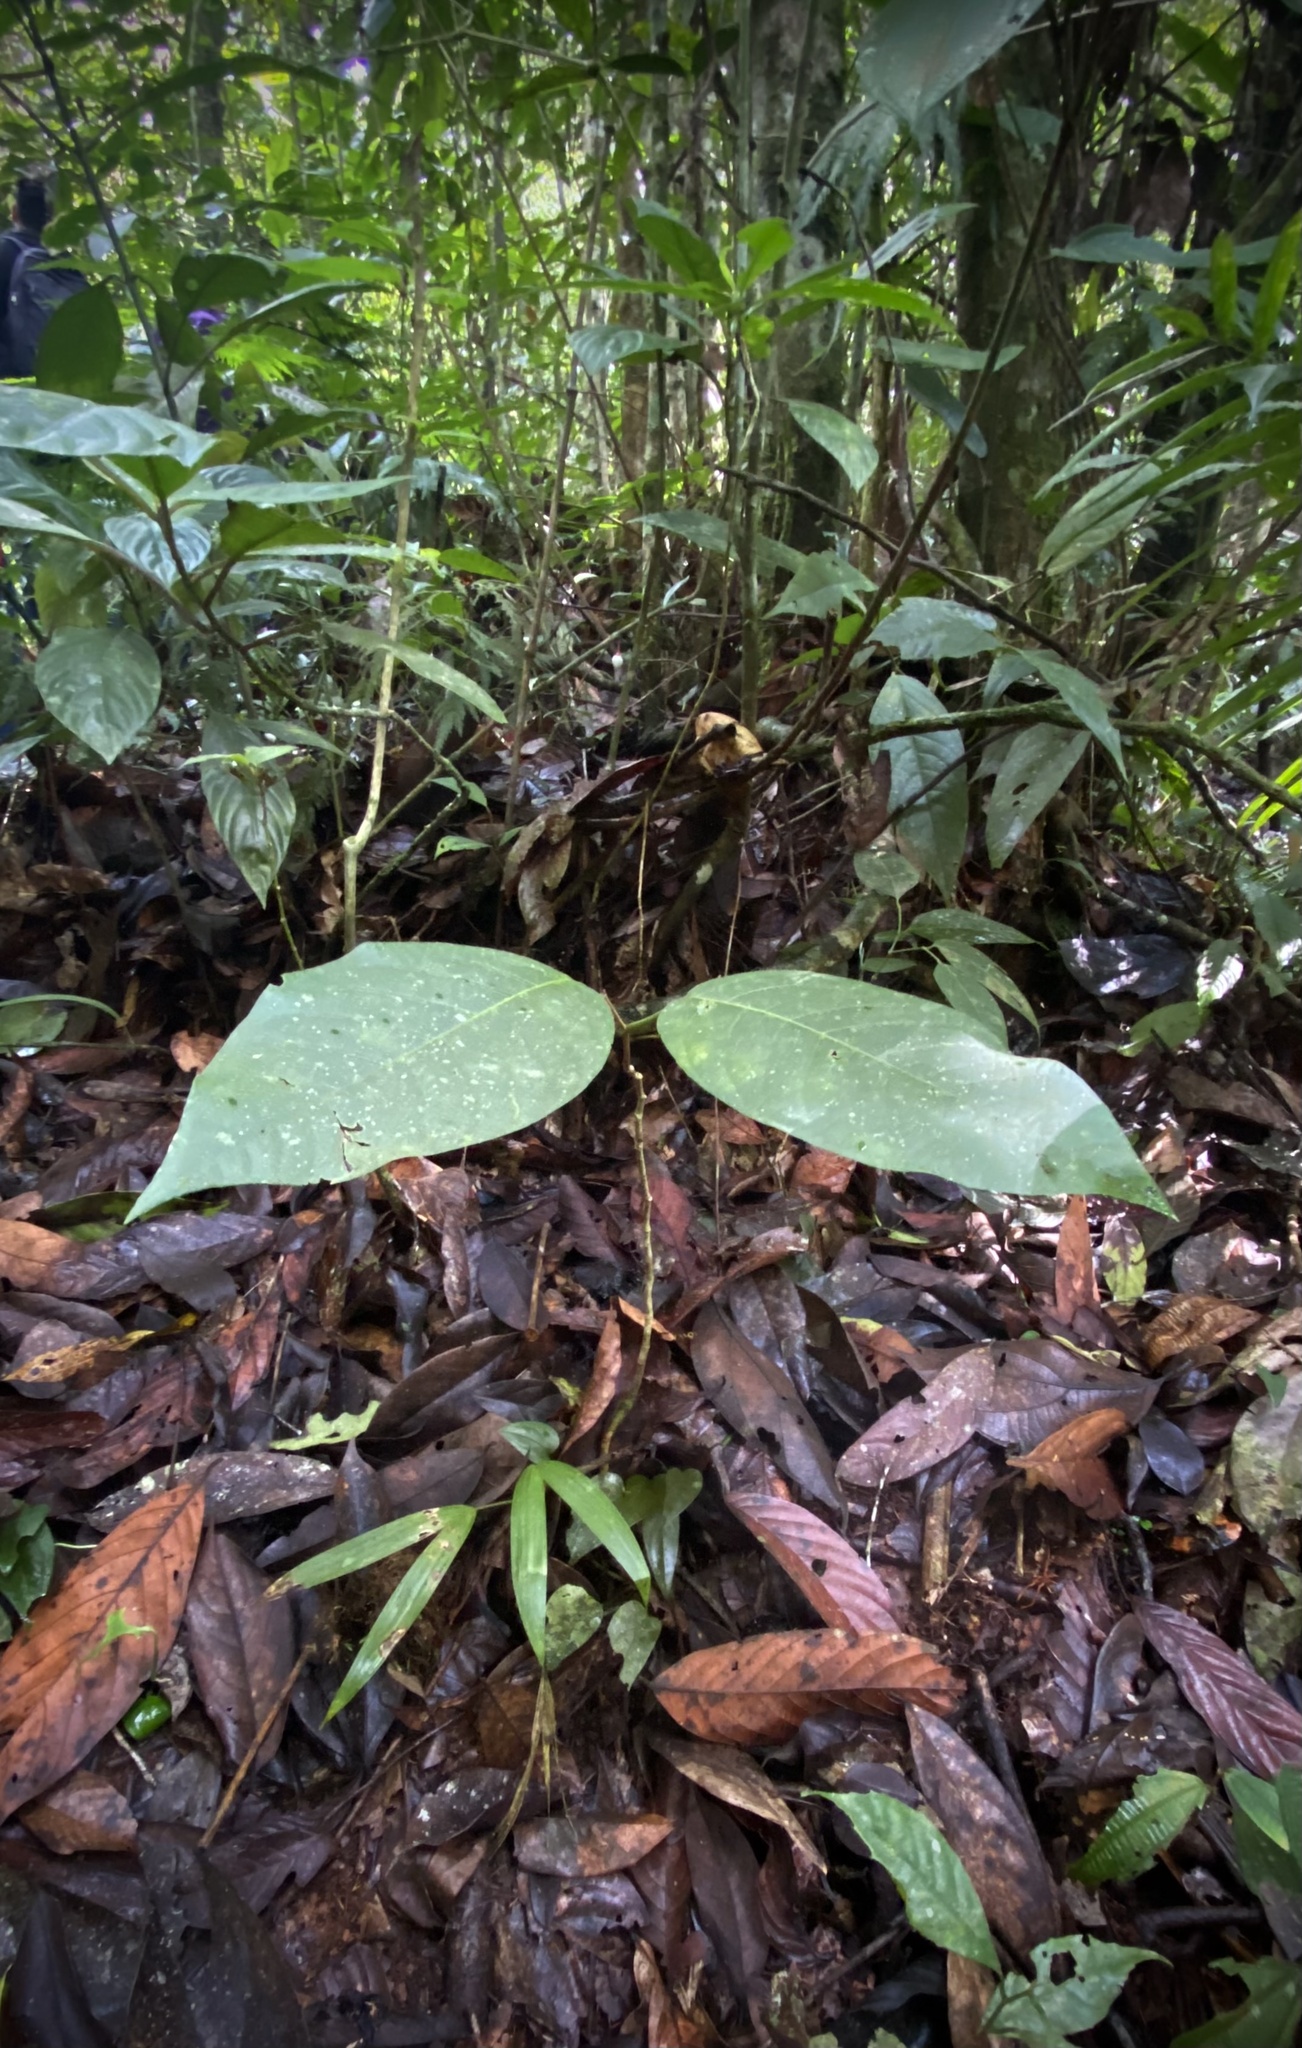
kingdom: Plantae
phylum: Tracheophyta
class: Magnoliopsida
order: Malpighiales
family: Passifloraceae
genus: Passiflora
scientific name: Passiflora emarginata
